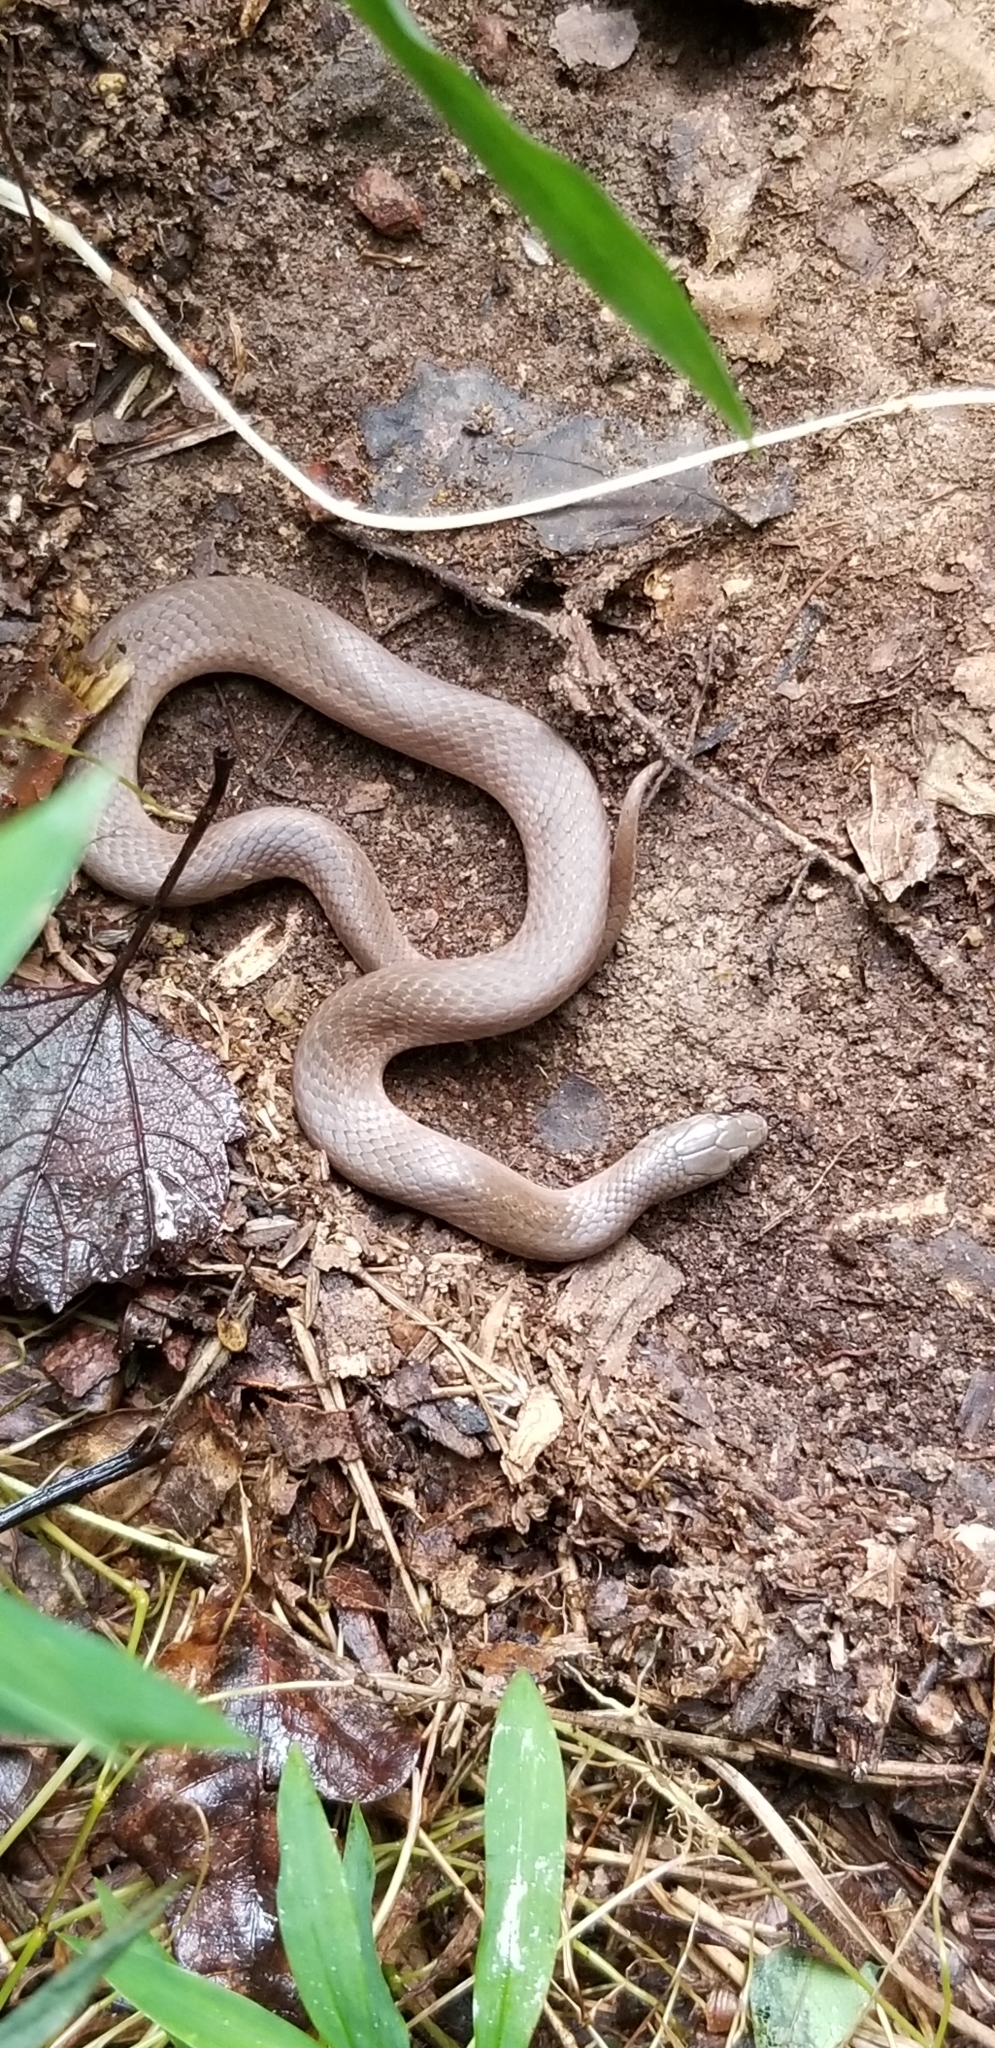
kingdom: Animalia
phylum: Chordata
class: Squamata
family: Colubridae
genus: Virginia
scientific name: Virginia valeriae
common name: Smooth earth snake
